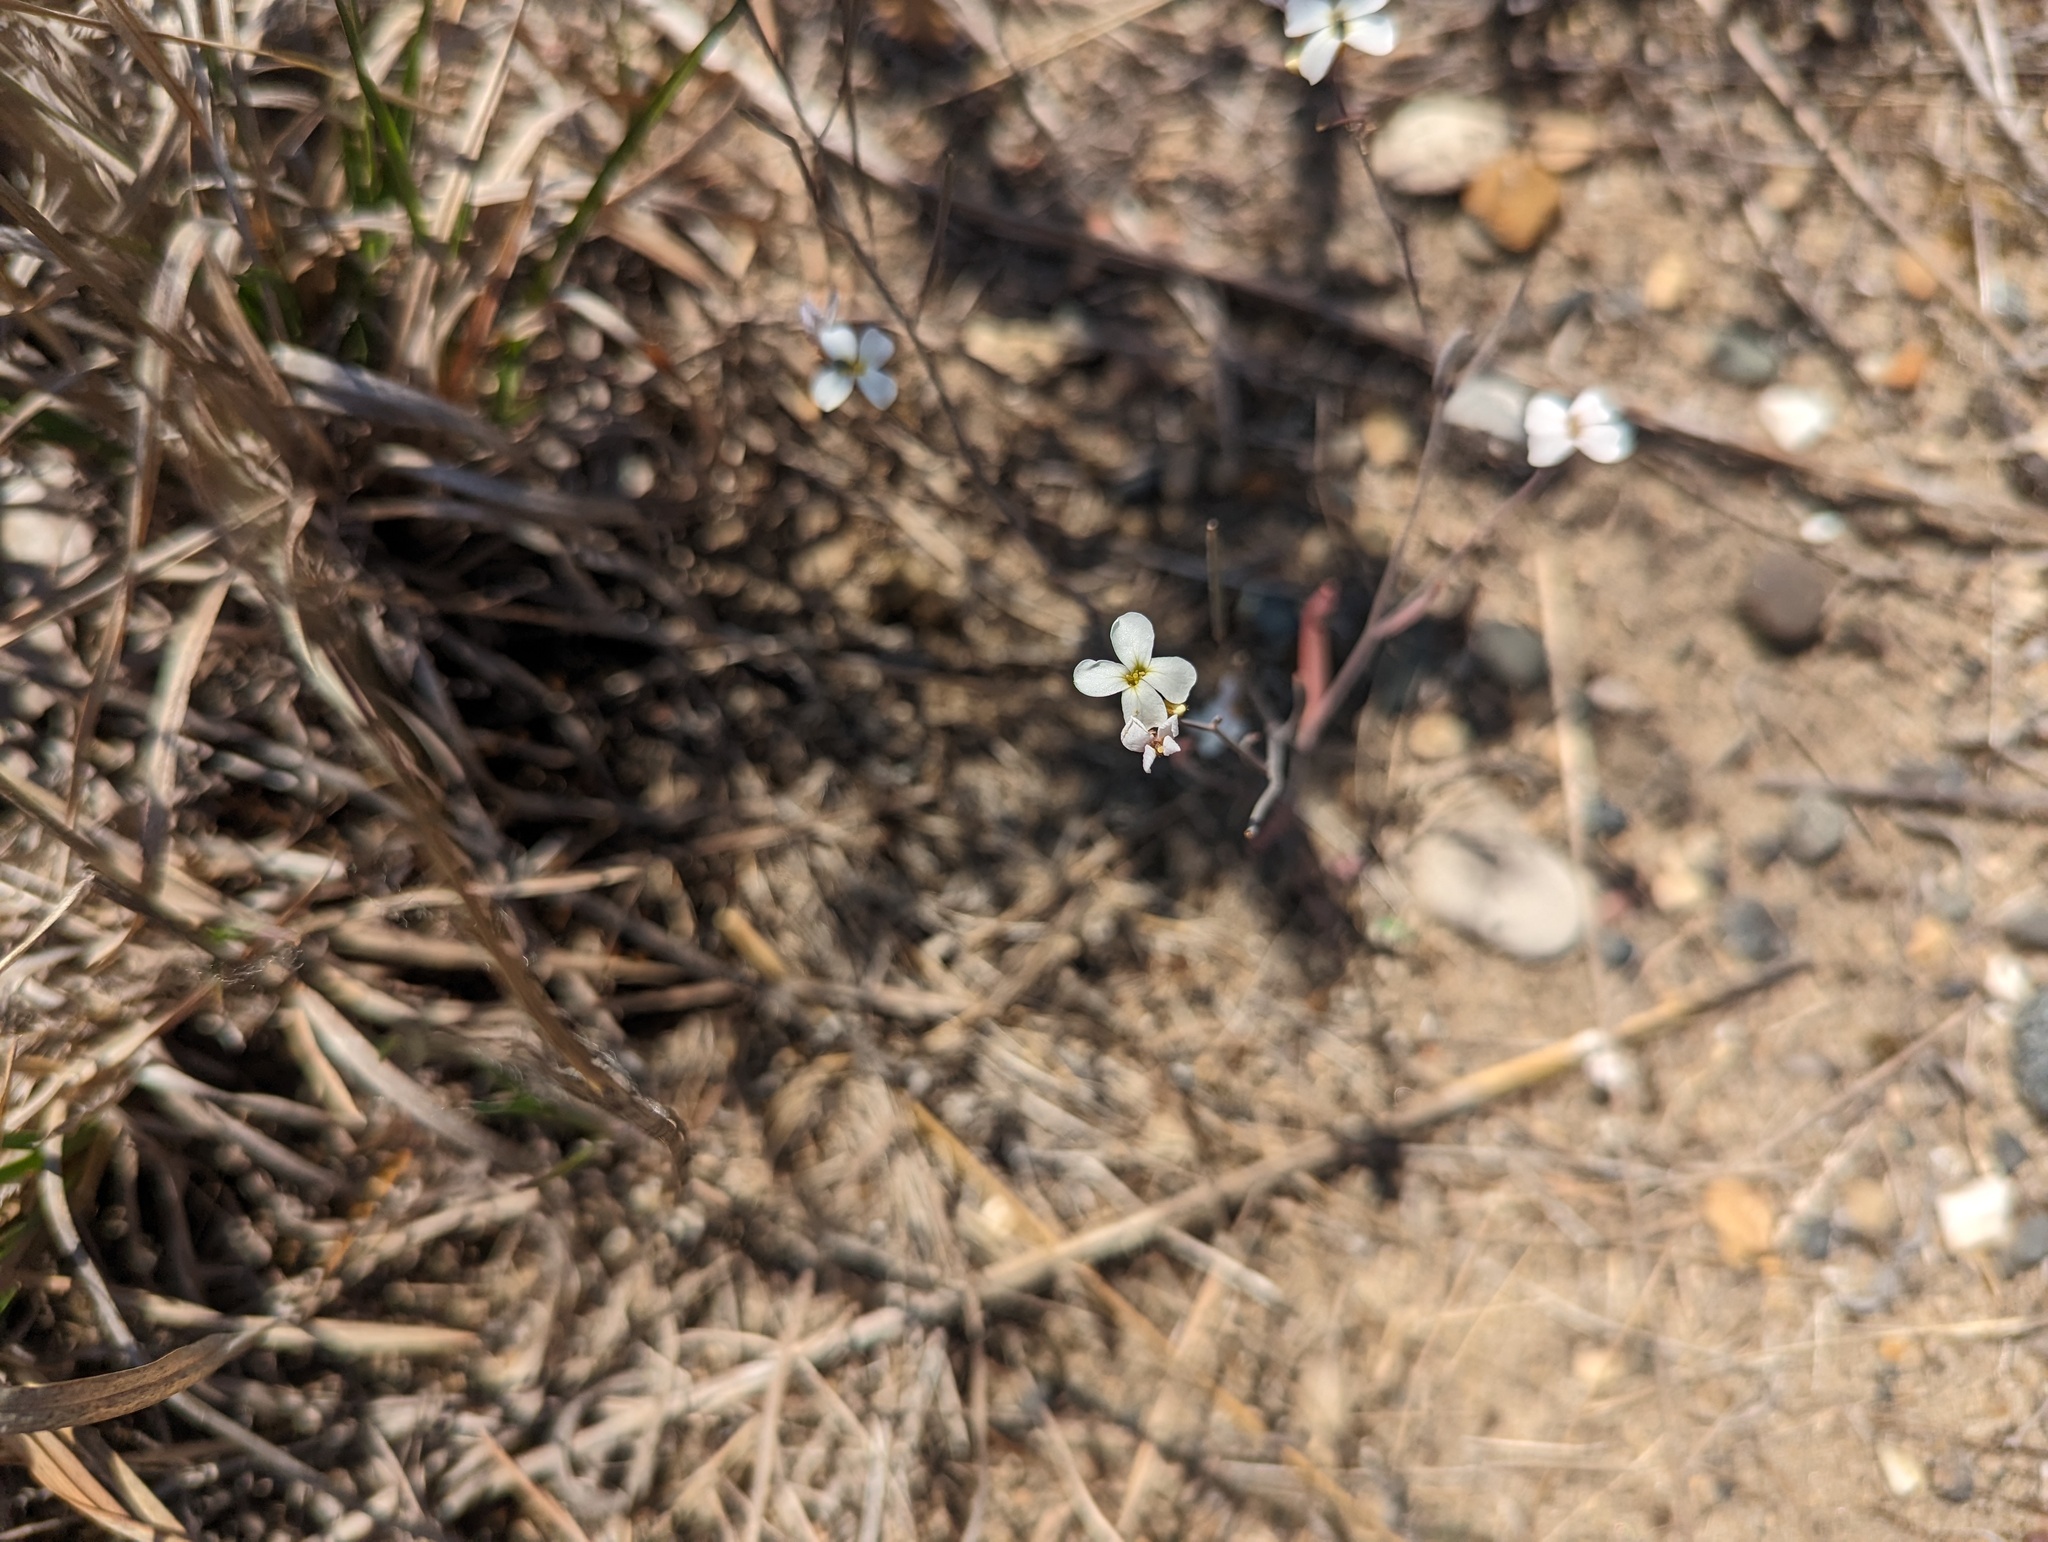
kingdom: Plantae
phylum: Tracheophyta
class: Magnoliopsida
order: Brassicales
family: Brassicaceae
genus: Arabidopsis
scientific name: Arabidopsis lyrata
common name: Lyrate rockcress
